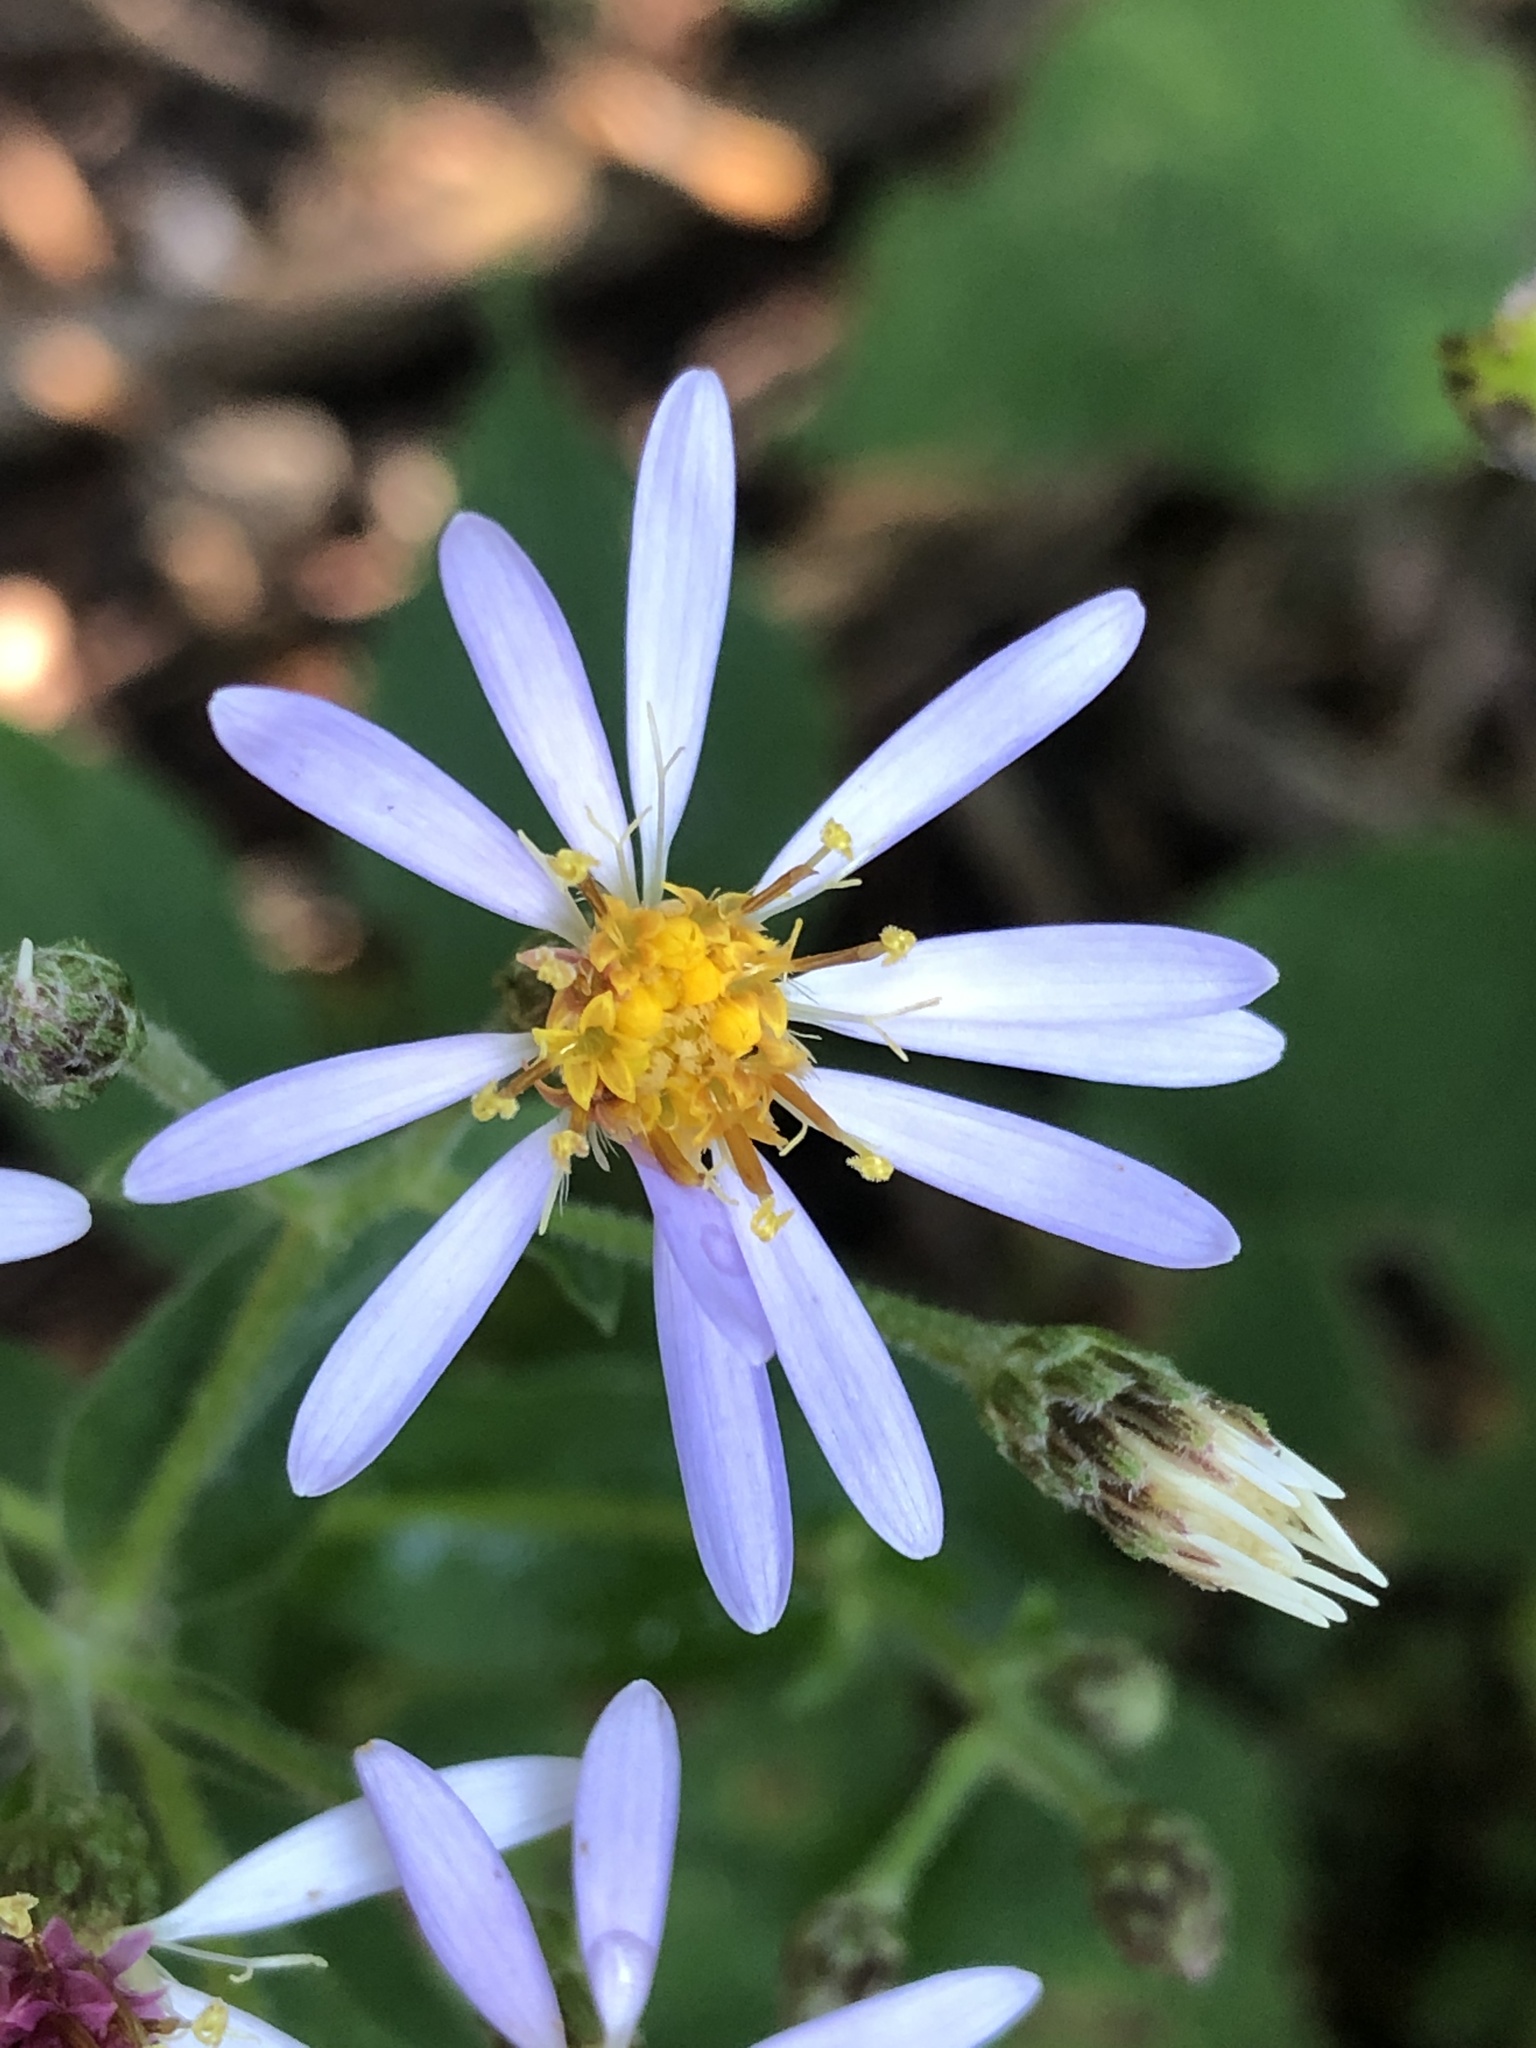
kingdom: Plantae
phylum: Tracheophyta
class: Magnoliopsida
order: Asterales
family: Asteraceae
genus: Eurybia
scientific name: Eurybia macrophylla
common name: Big-leaved aster
